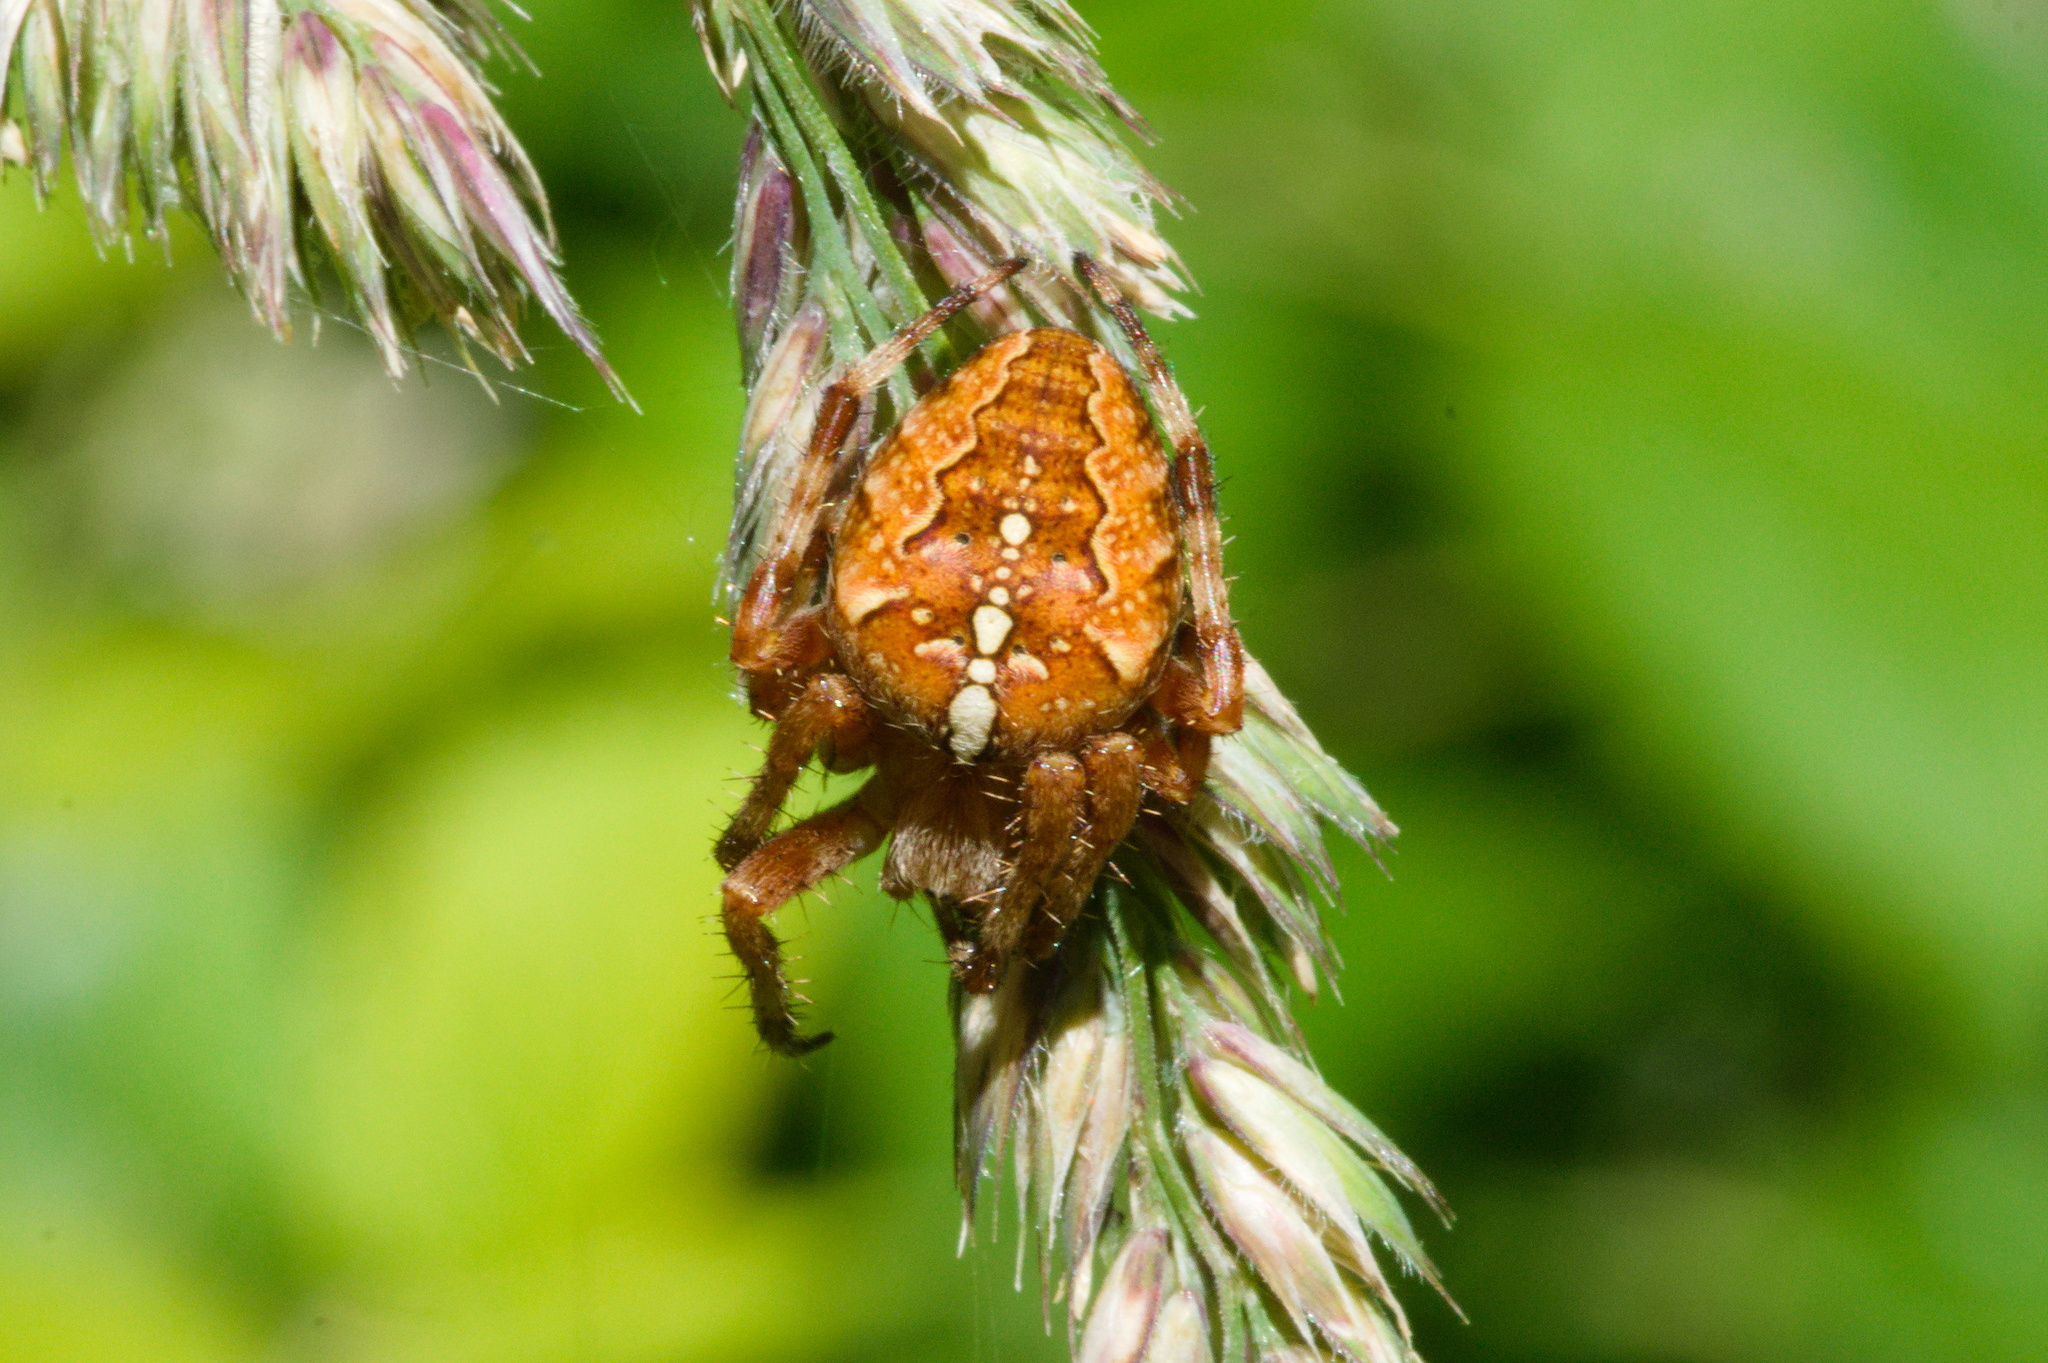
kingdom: Animalia
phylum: Arthropoda
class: Arachnida
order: Araneae
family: Araneidae
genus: Araneus
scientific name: Araneus diadematus
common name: Cross orbweaver
